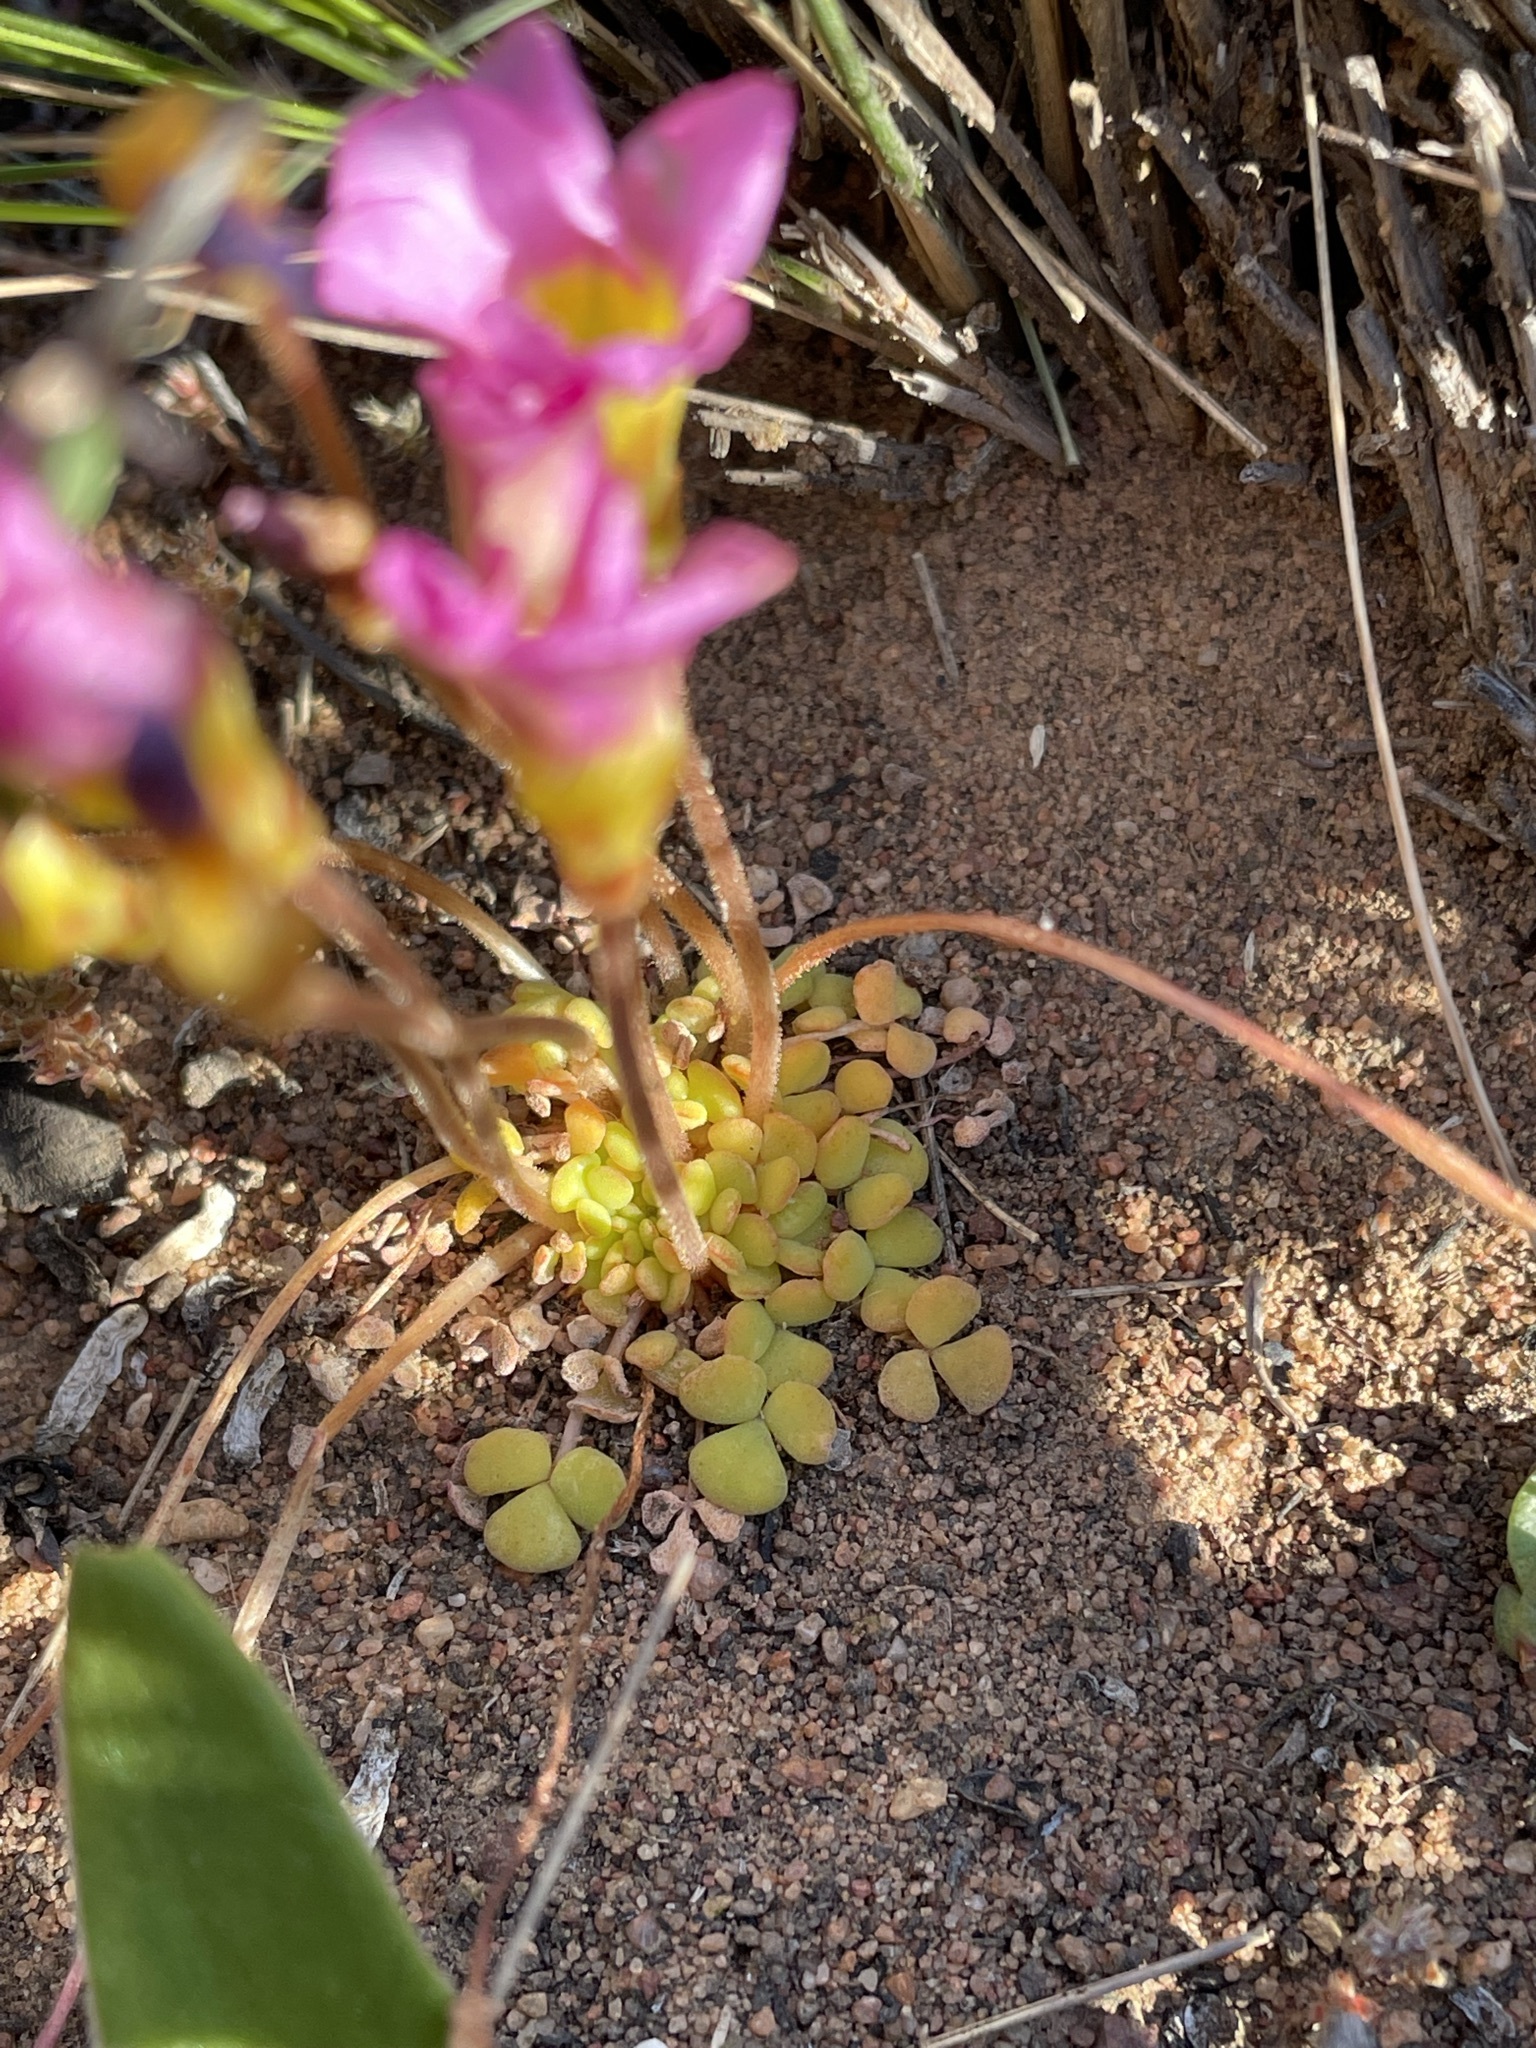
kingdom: Plantae
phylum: Tracheophyta
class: Magnoliopsida
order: Oxalidales
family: Oxalidaceae
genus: Oxalis
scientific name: Oxalis inaequalis
